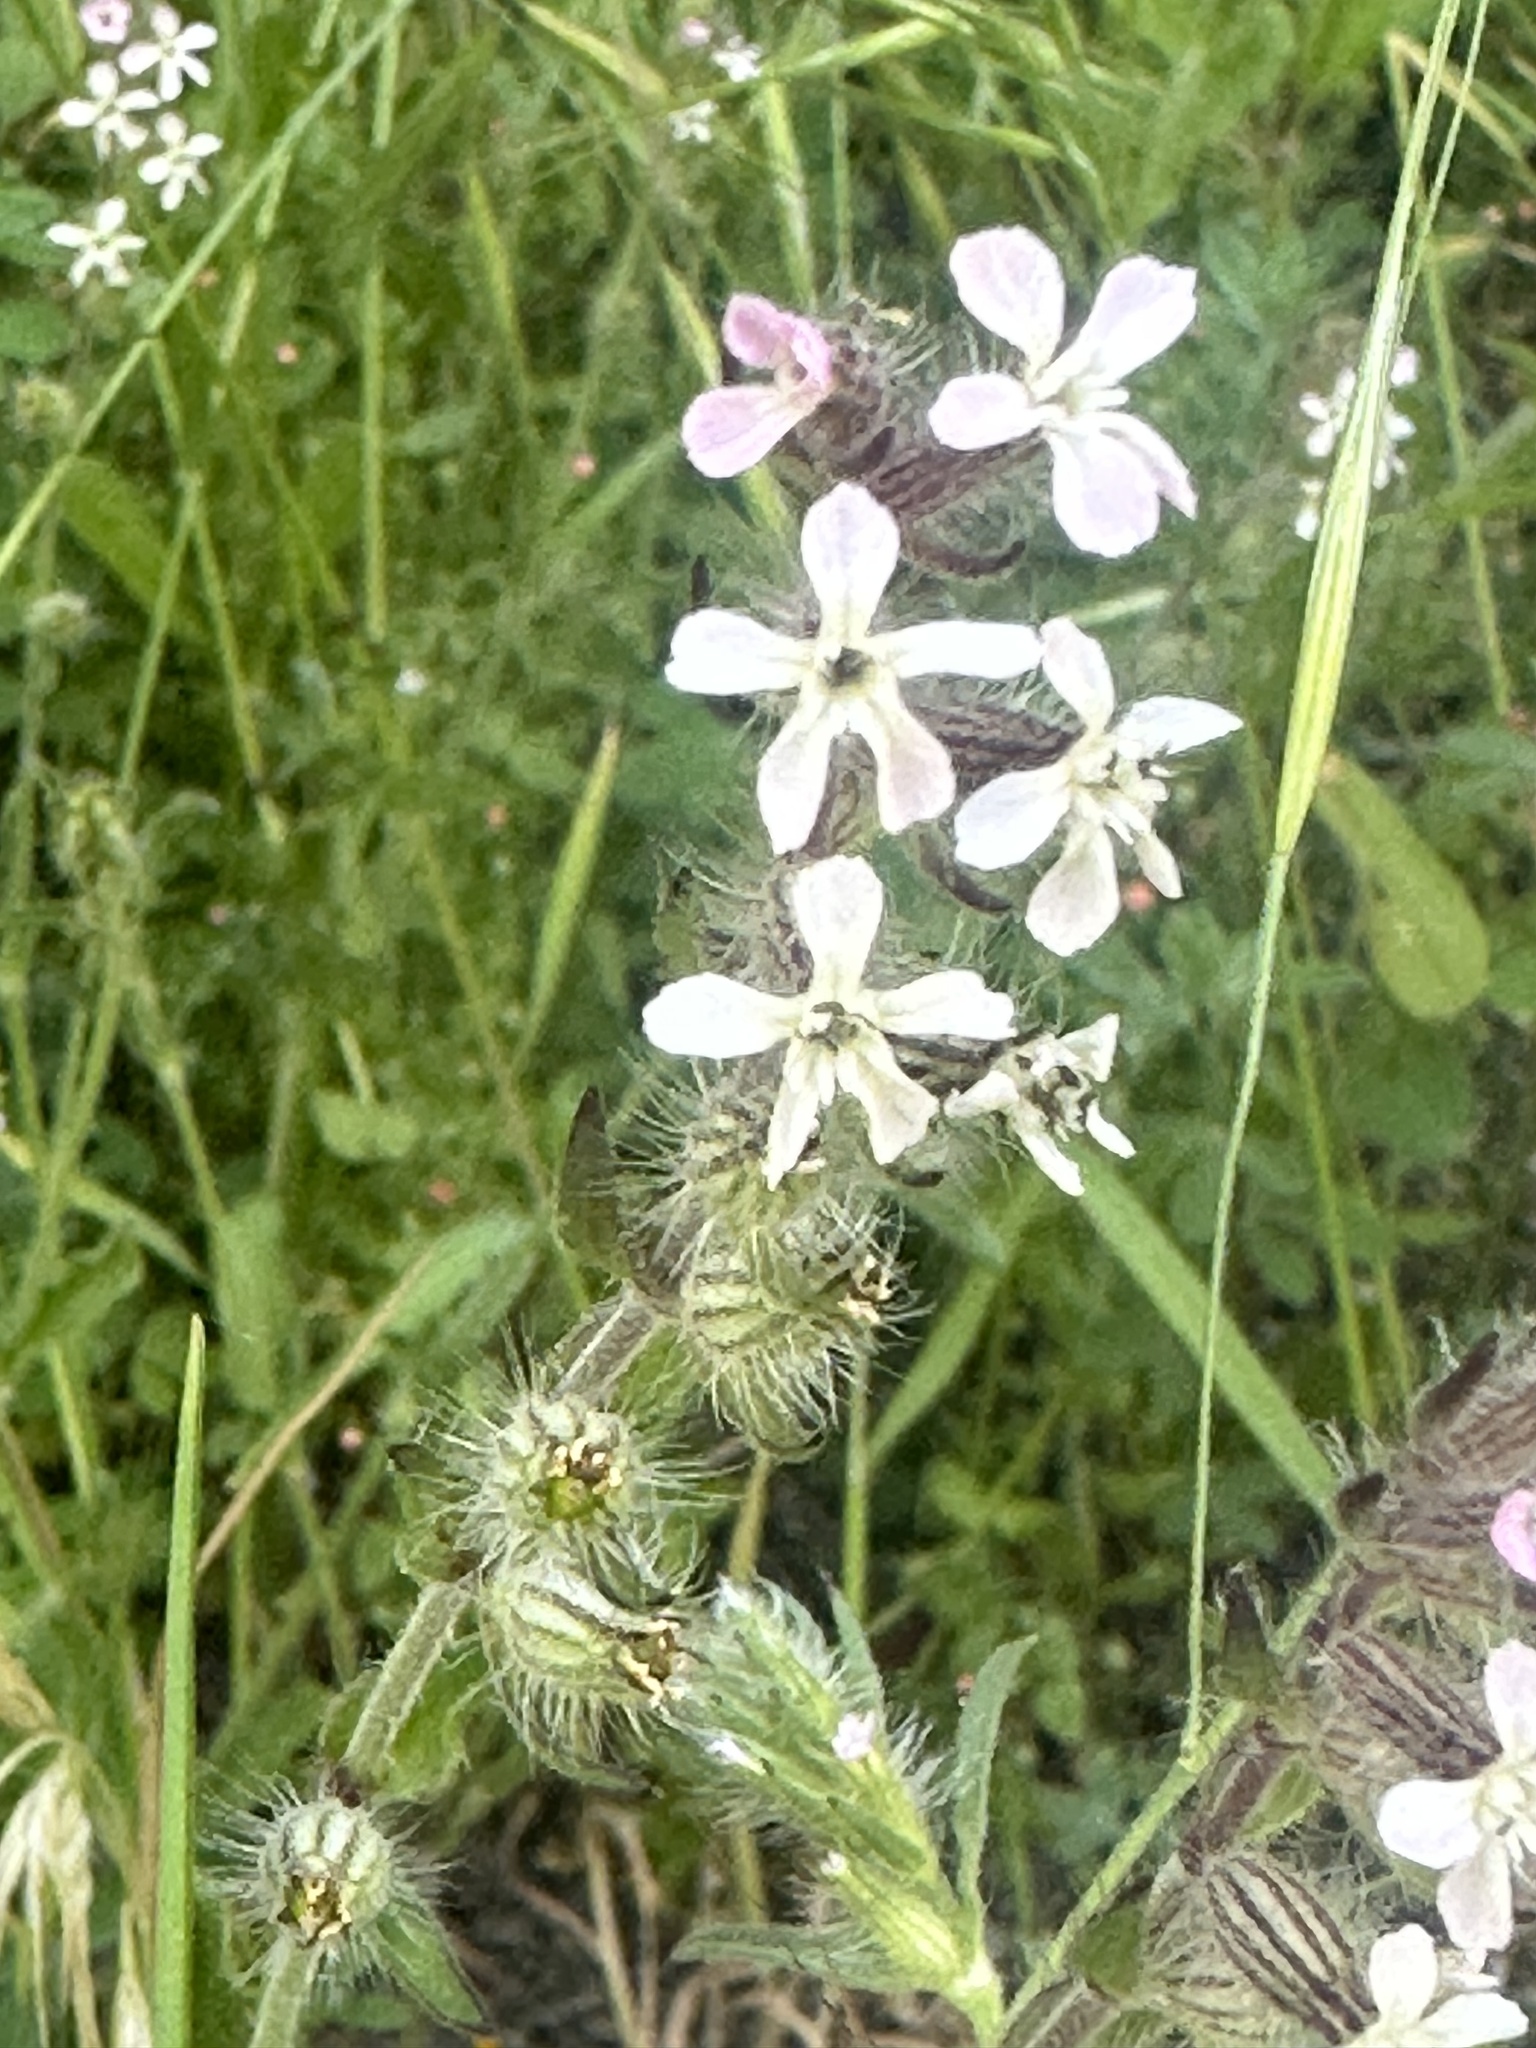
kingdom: Plantae
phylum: Tracheophyta
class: Magnoliopsida
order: Caryophyllales
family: Caryophyllaceae
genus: Silene
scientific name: Silene gallica
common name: Small-flowered catchfly
